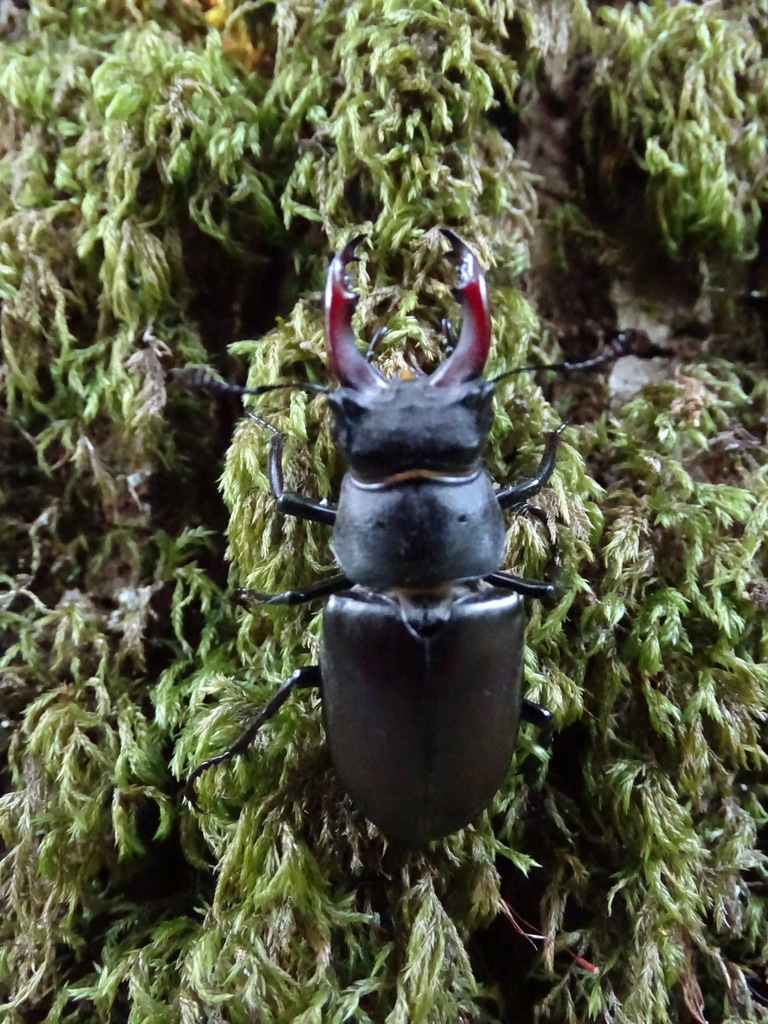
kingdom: Animalia
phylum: Arthropoda
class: Insecta
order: Coleoptera
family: Lucanidae
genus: Lucanus
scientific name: Lucanus cervus
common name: Stag beetle
